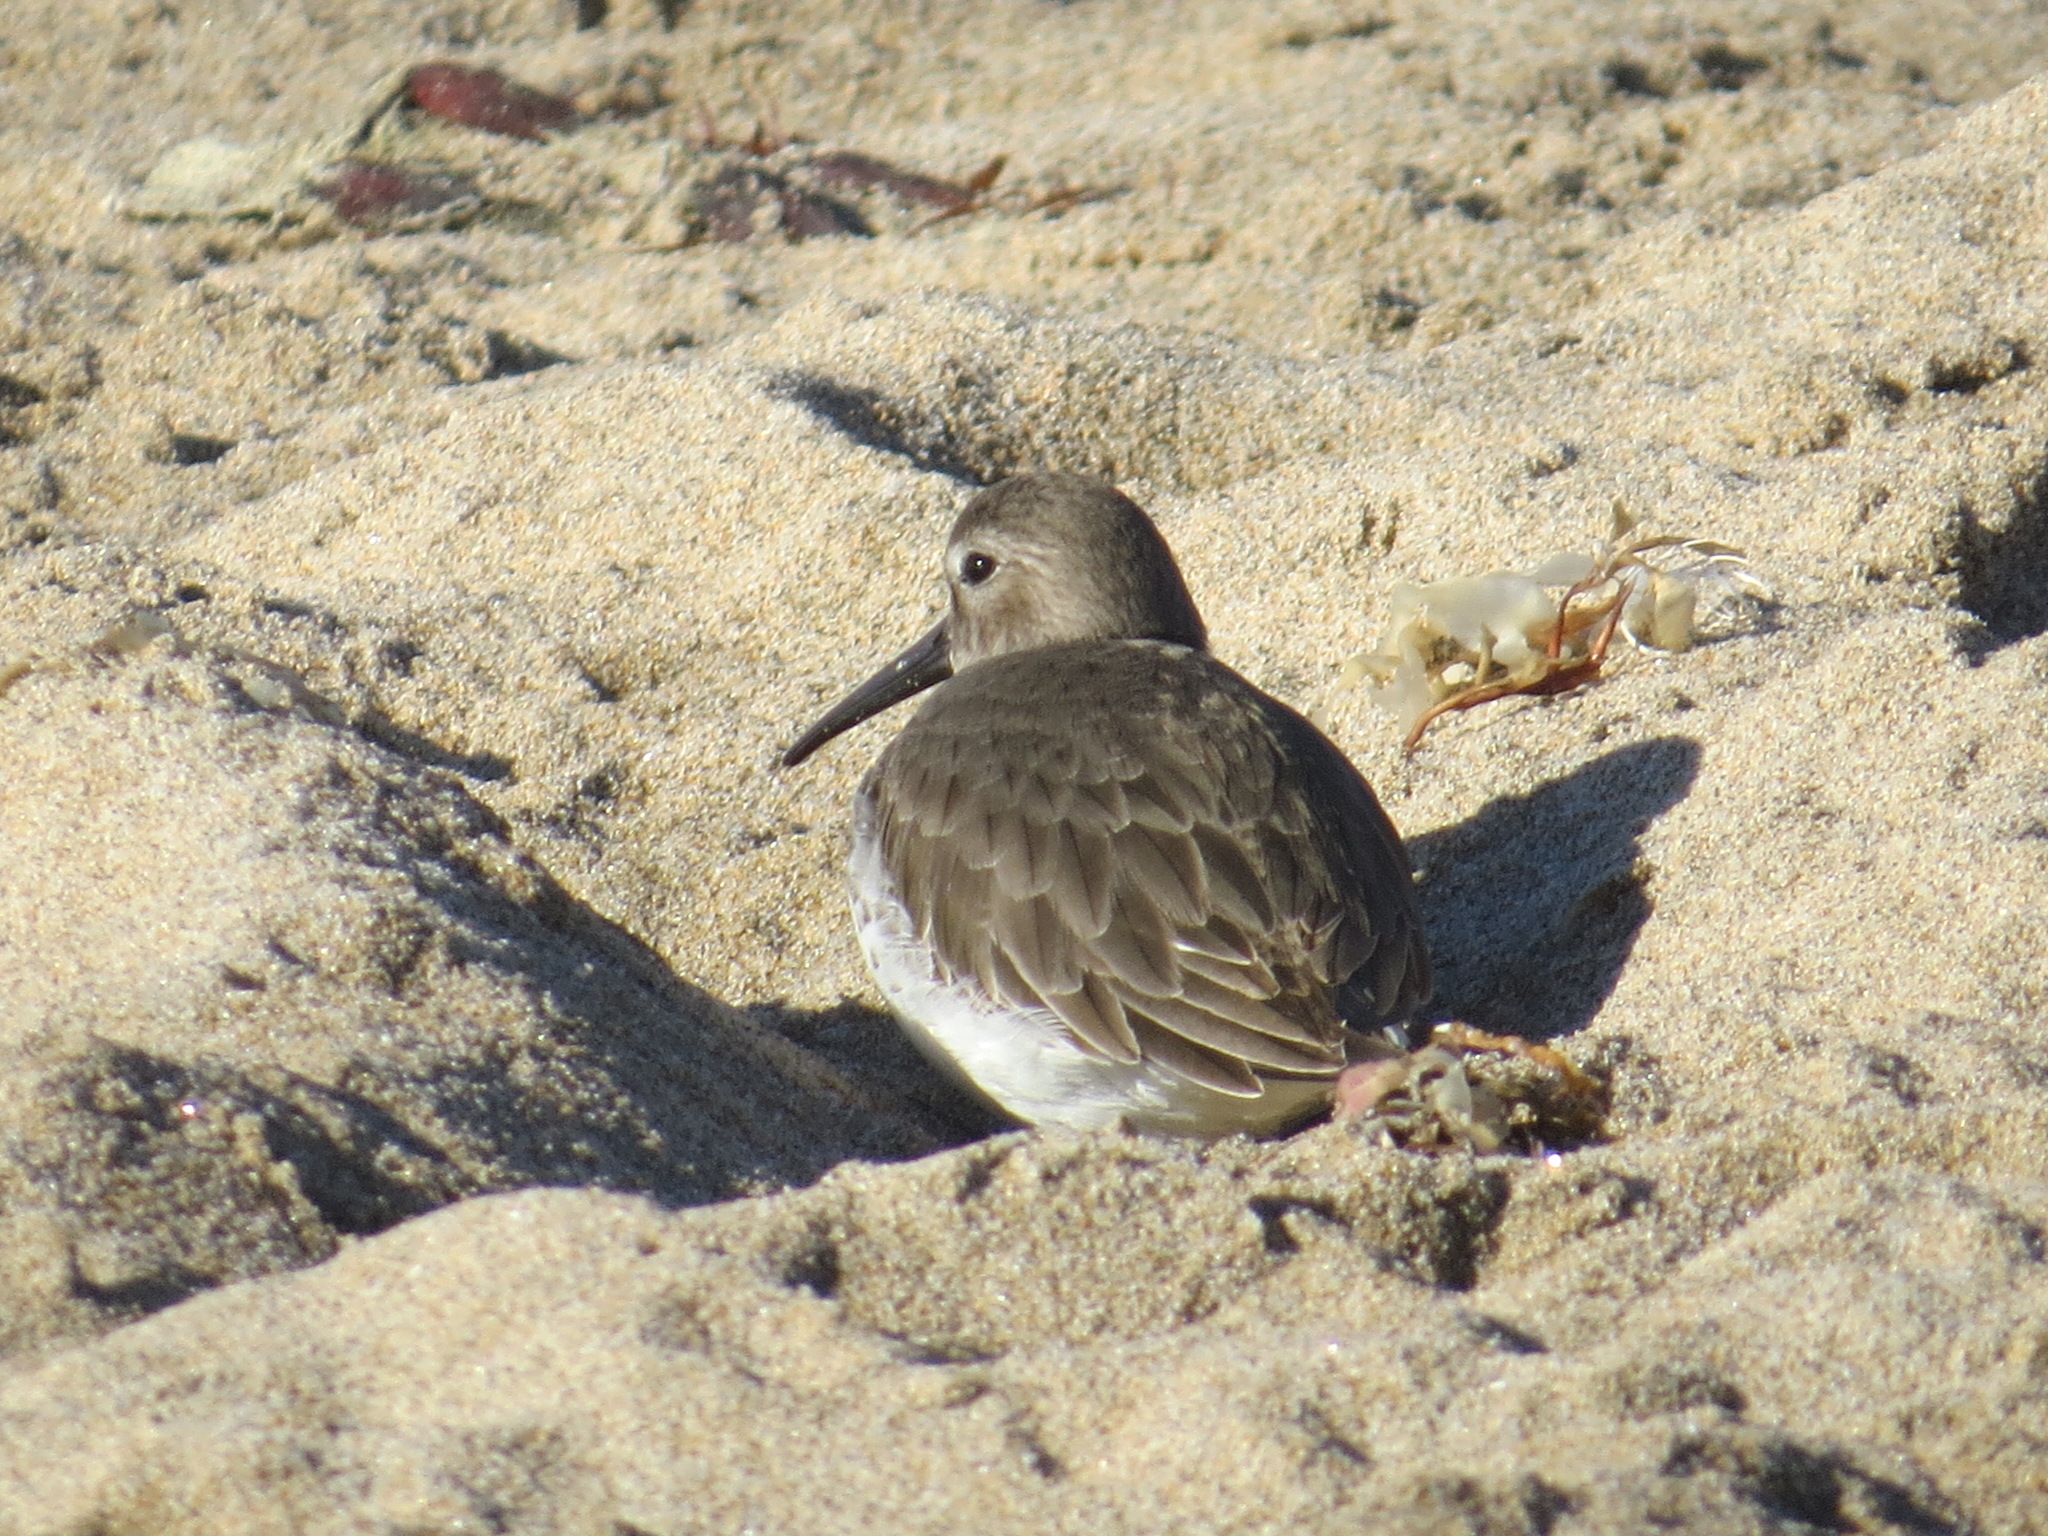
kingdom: Animalia
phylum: Chordata
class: Aves
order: Charadriiformes
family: Scolopacidae
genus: Calidris
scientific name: Calidris alpina
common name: Dunlin
